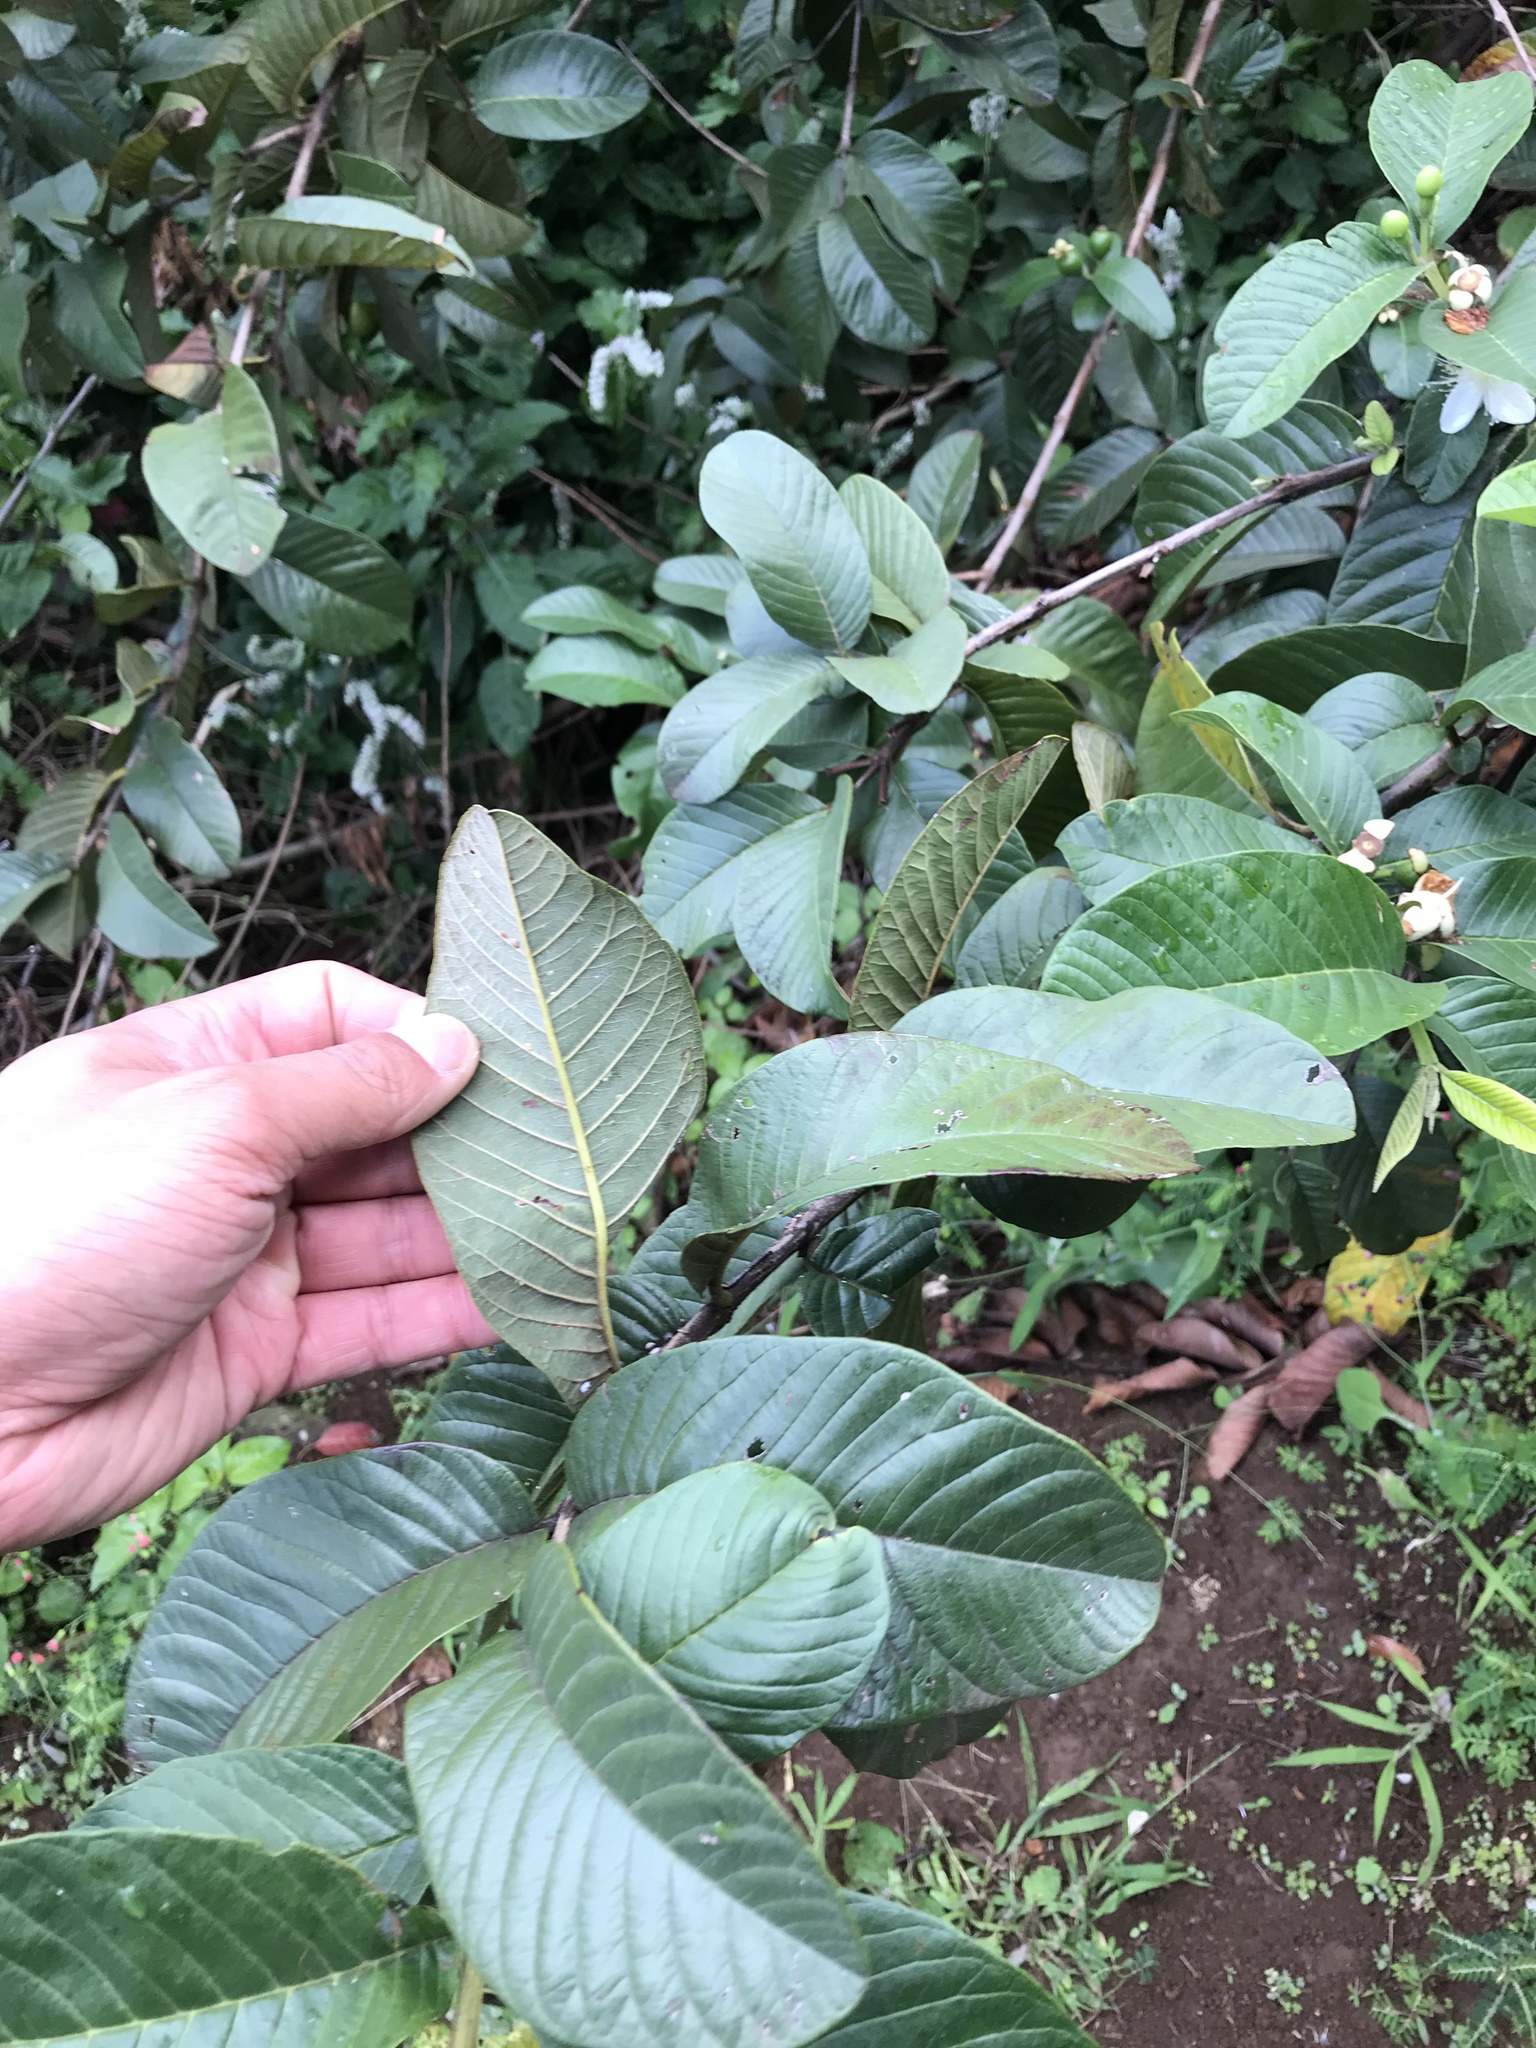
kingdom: Plantae
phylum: Tracheophyta
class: Magnoliopsida
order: Myrtales
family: Myrtaceae
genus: Psidium
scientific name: Psidium guajava
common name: Guava
